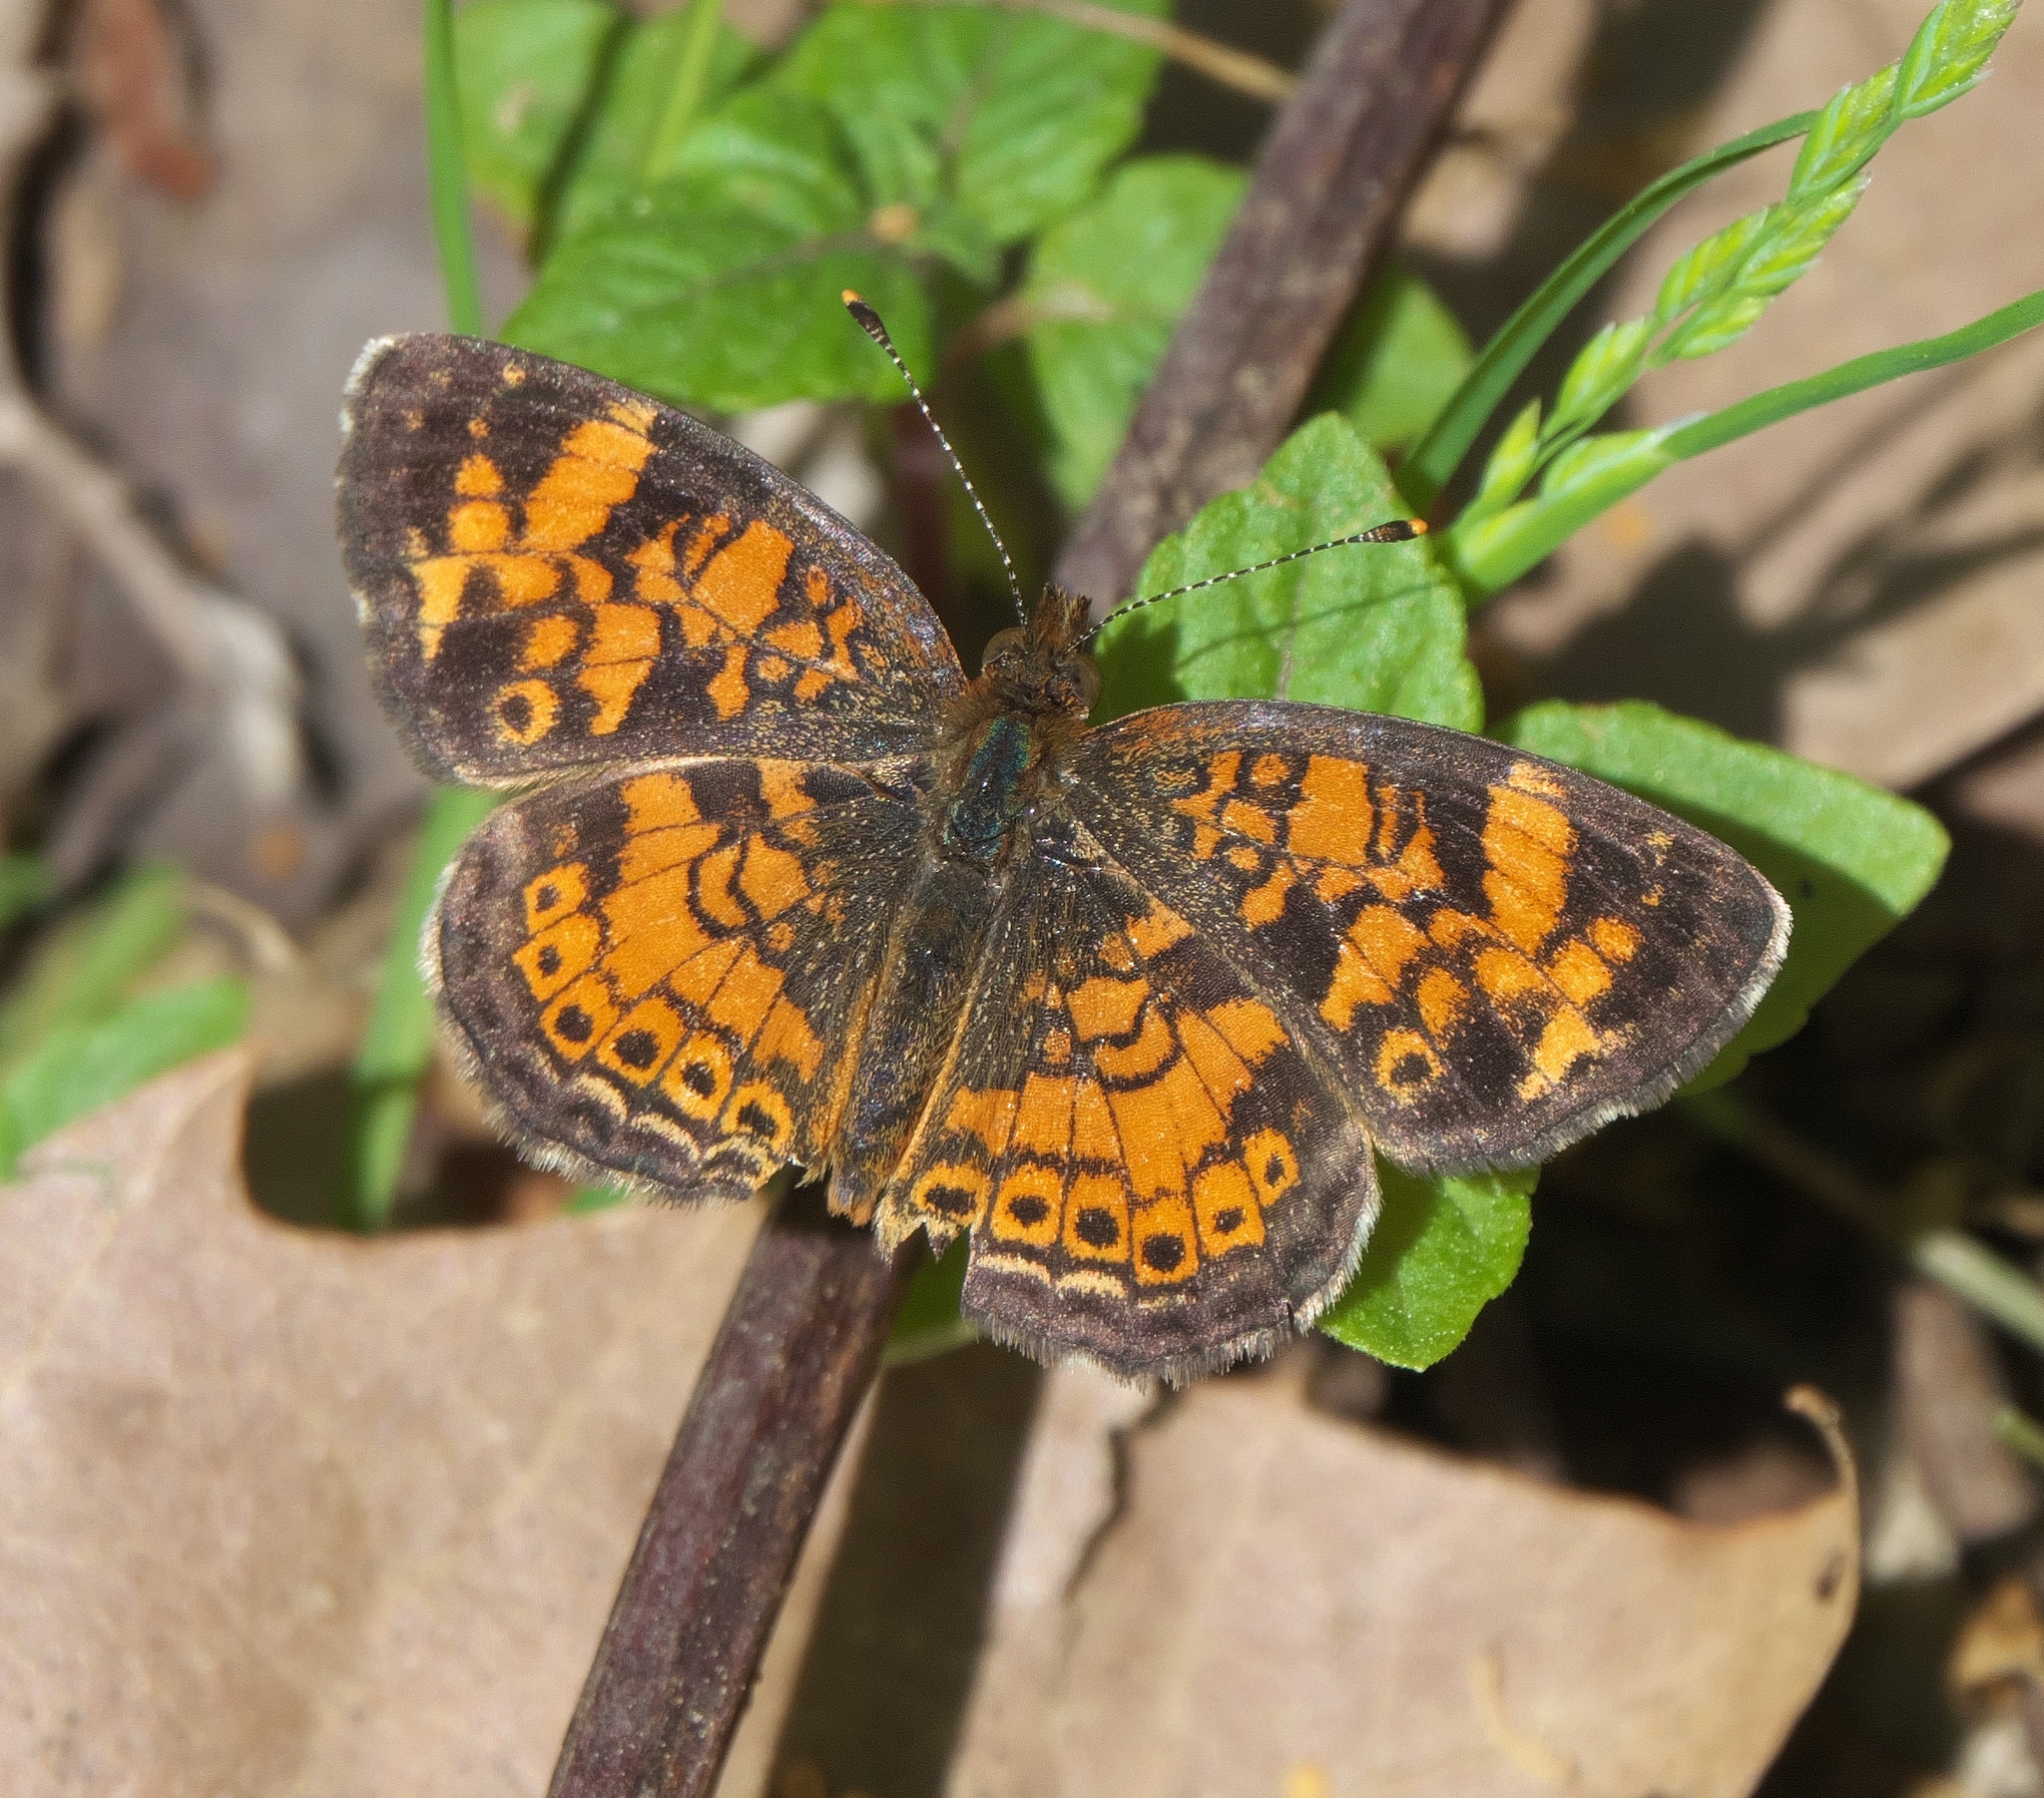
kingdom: Animalia
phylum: Arthropoda
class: Insecta
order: Lepidoptera
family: Nymphalidae
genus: Phyciodes
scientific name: Phyciodes tharos
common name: Pearl crescent
